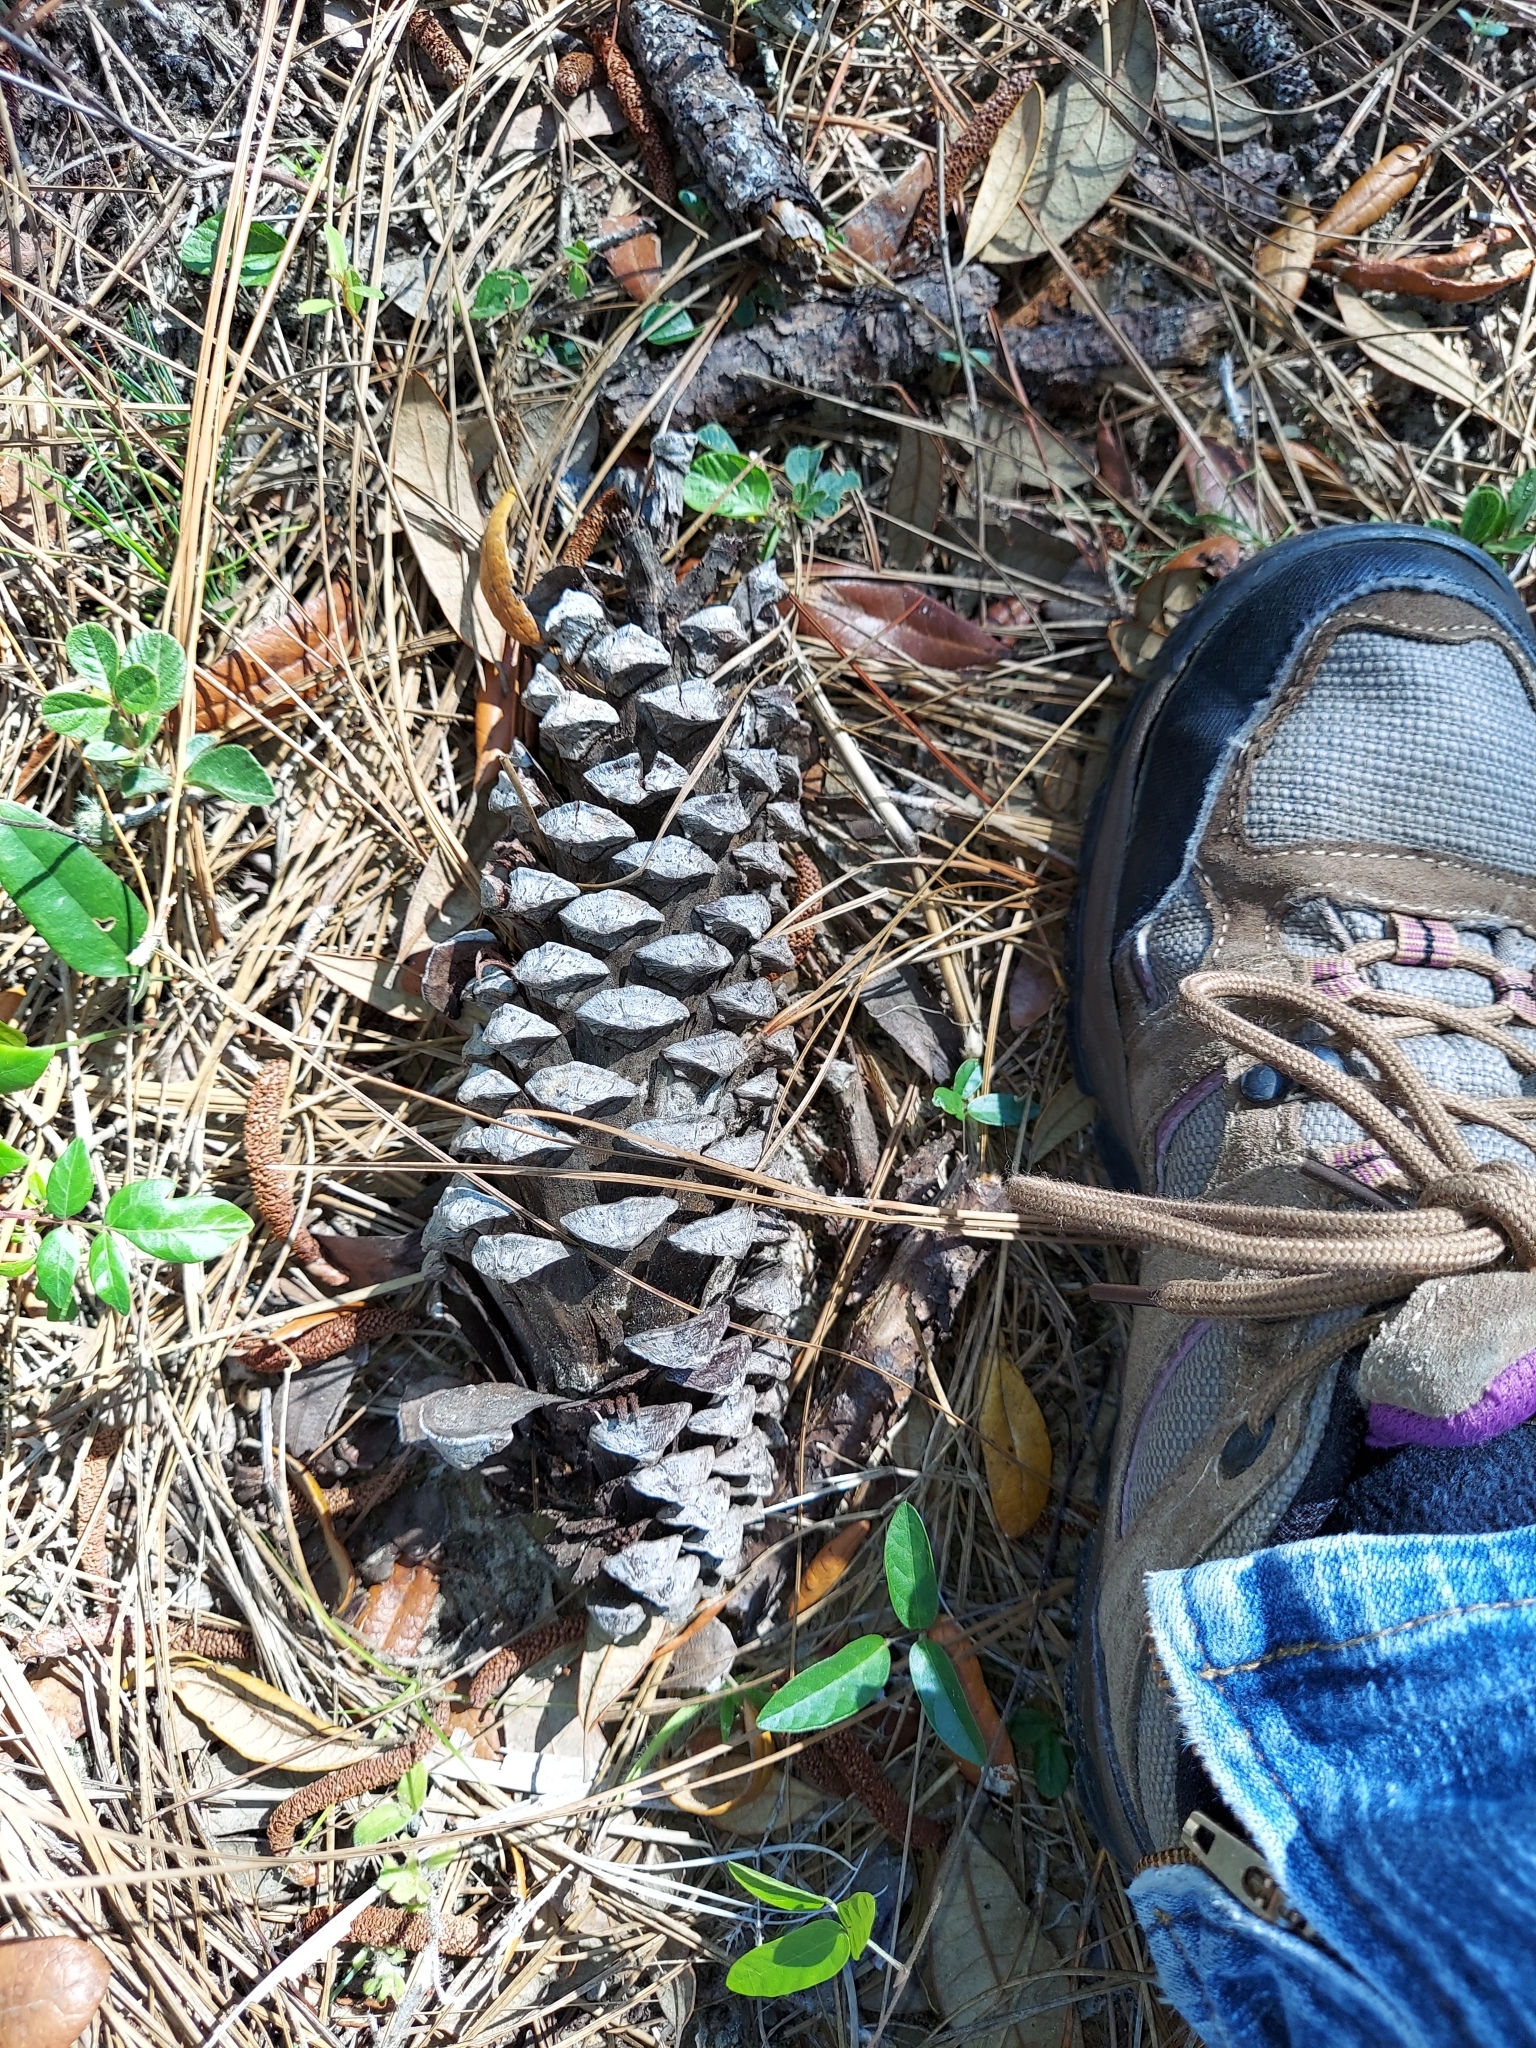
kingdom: Plantae
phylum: Tracheophyta
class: Pinopsida
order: Pinales
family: Pinaceae
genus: Pinus
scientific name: Pinus palustris
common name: Longleaf pine
